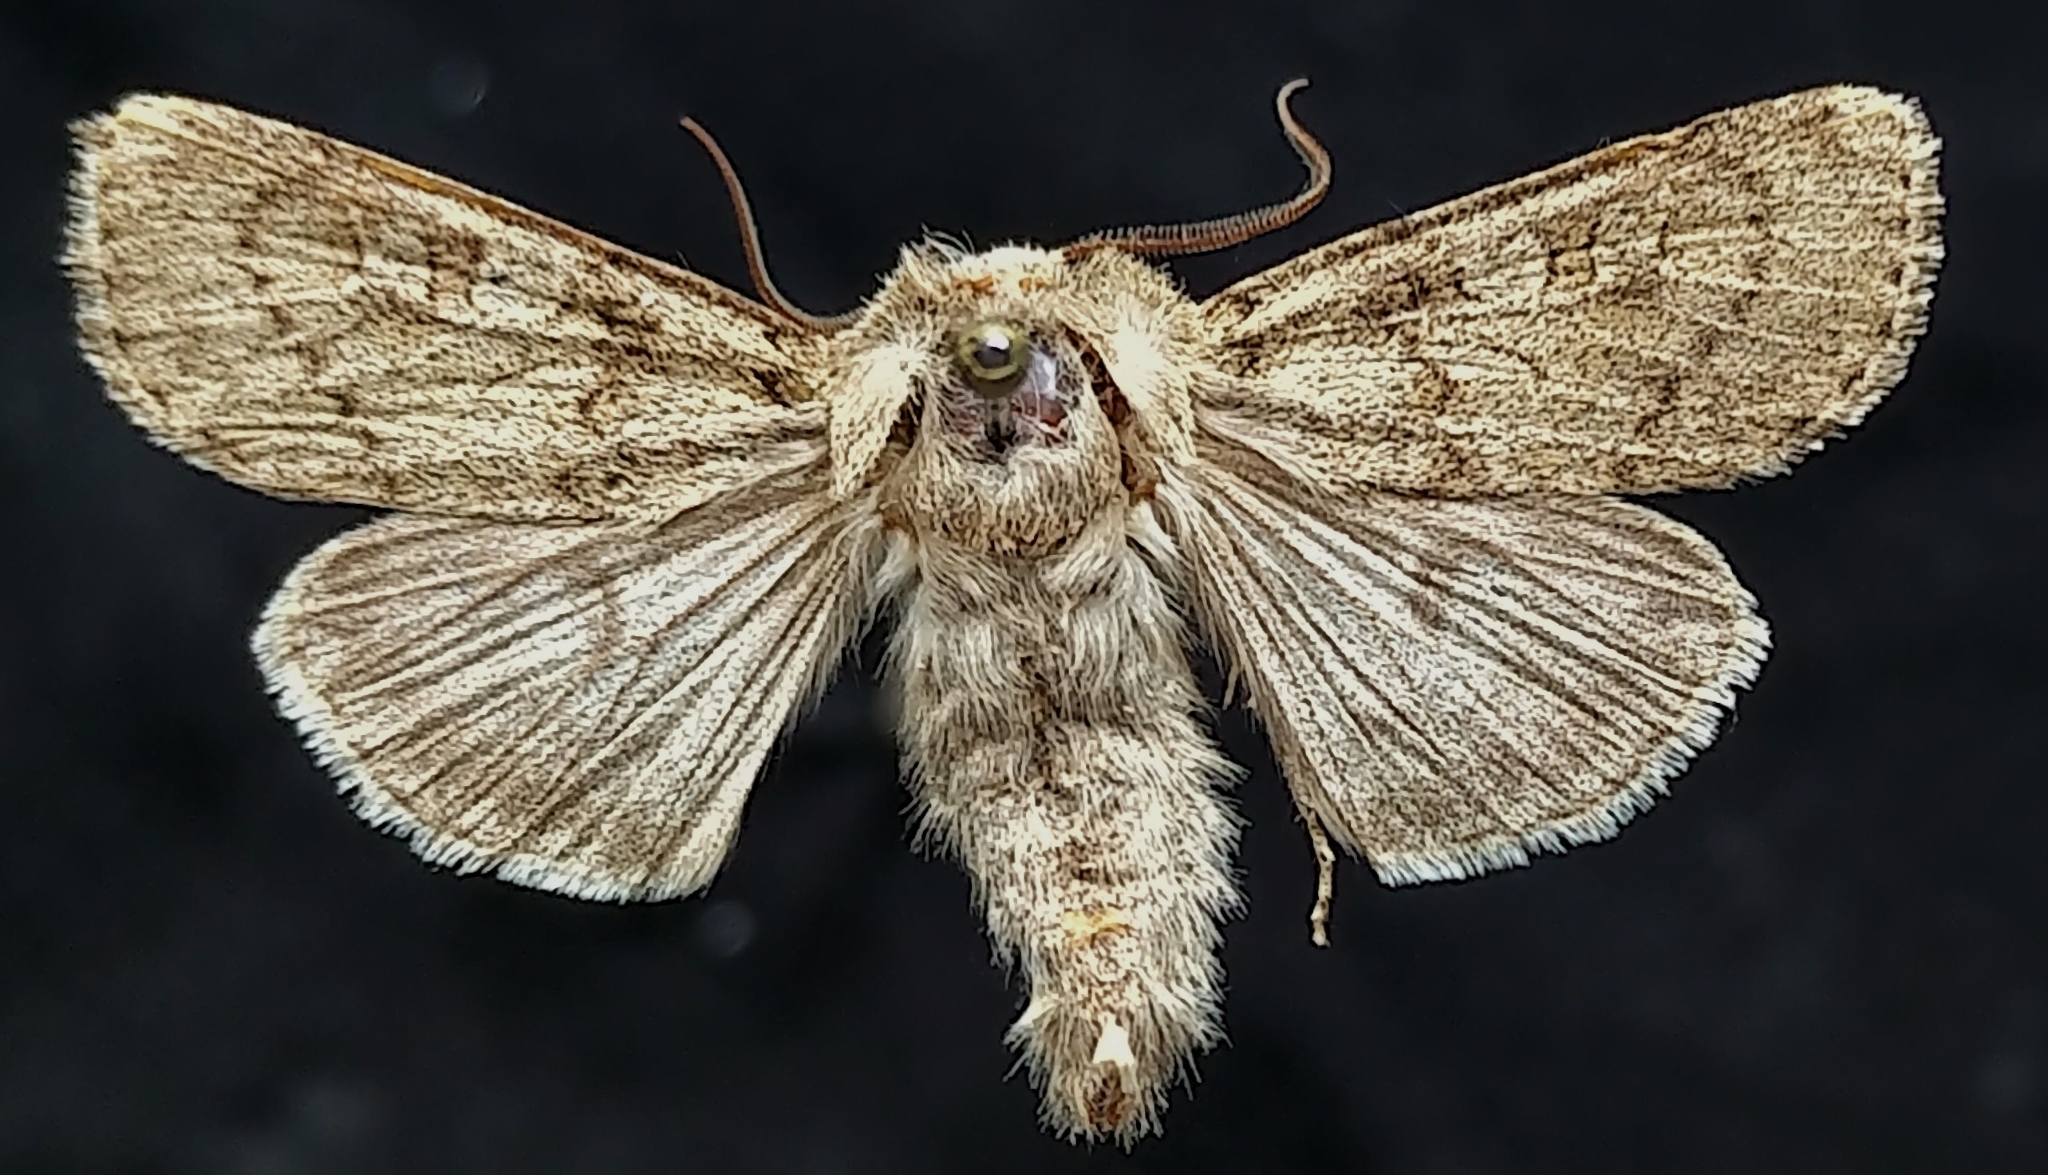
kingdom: Animalia
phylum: Arthropoda
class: Insecta
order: Lepidoptera
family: Noctuidae
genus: Euxoa
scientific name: Euxoa edictalis
